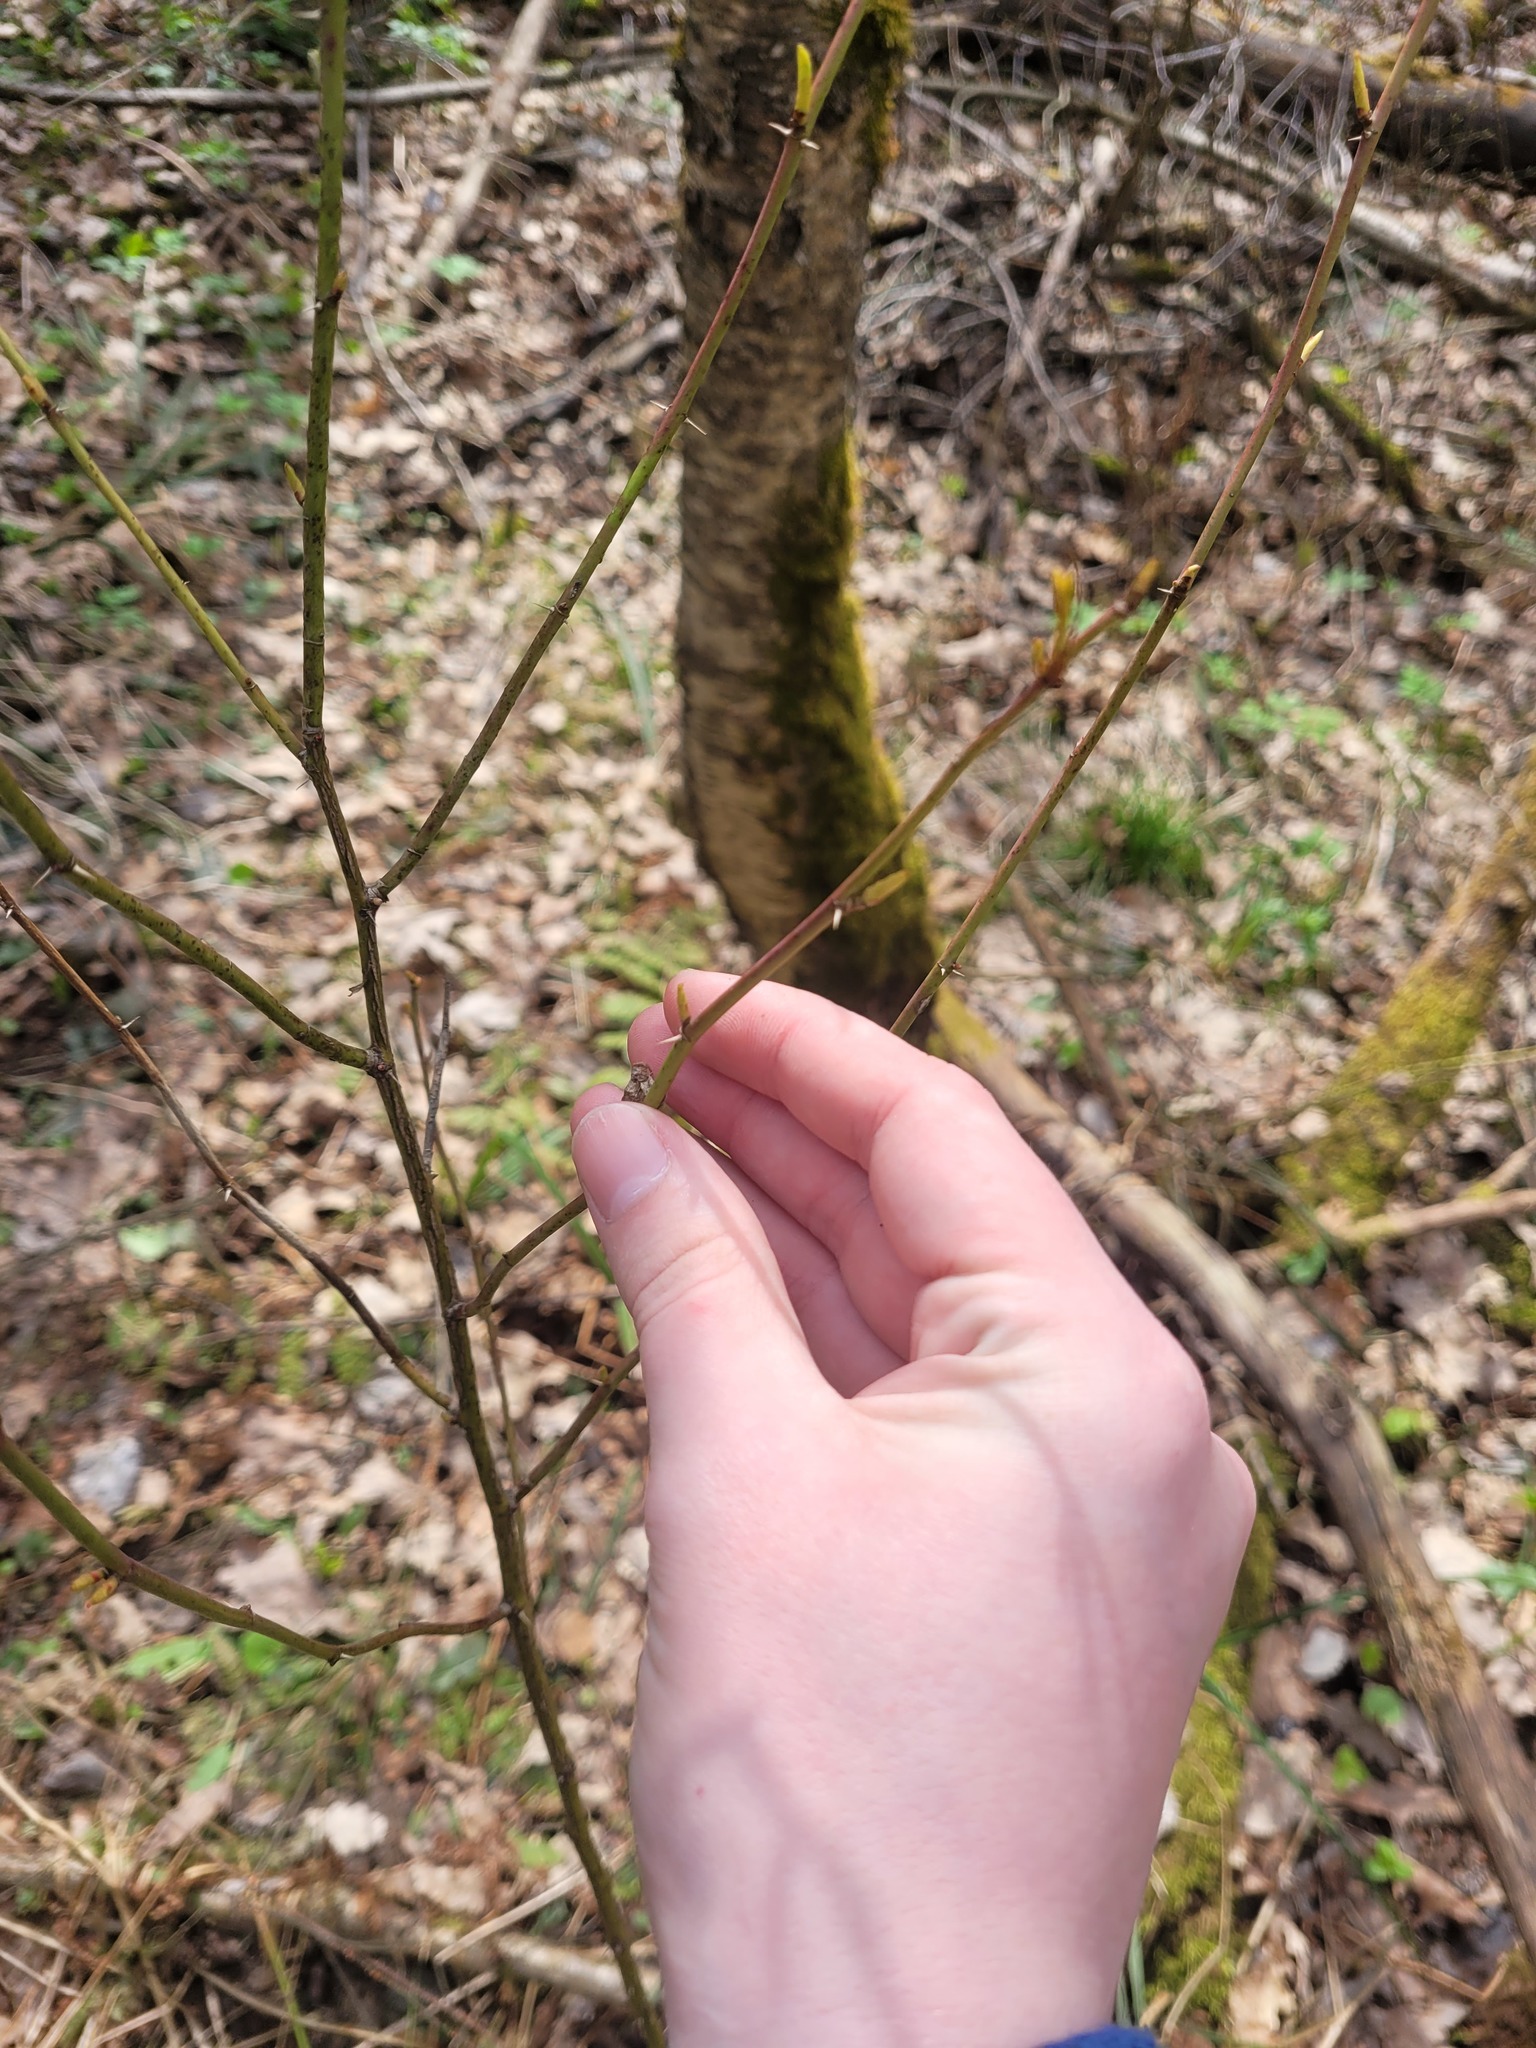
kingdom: Plantae
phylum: Tracheophyta
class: Magnoliopsida
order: Rosales
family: Rosaceae
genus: Rosa
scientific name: Rosa majalis
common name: Cinnamon rose
